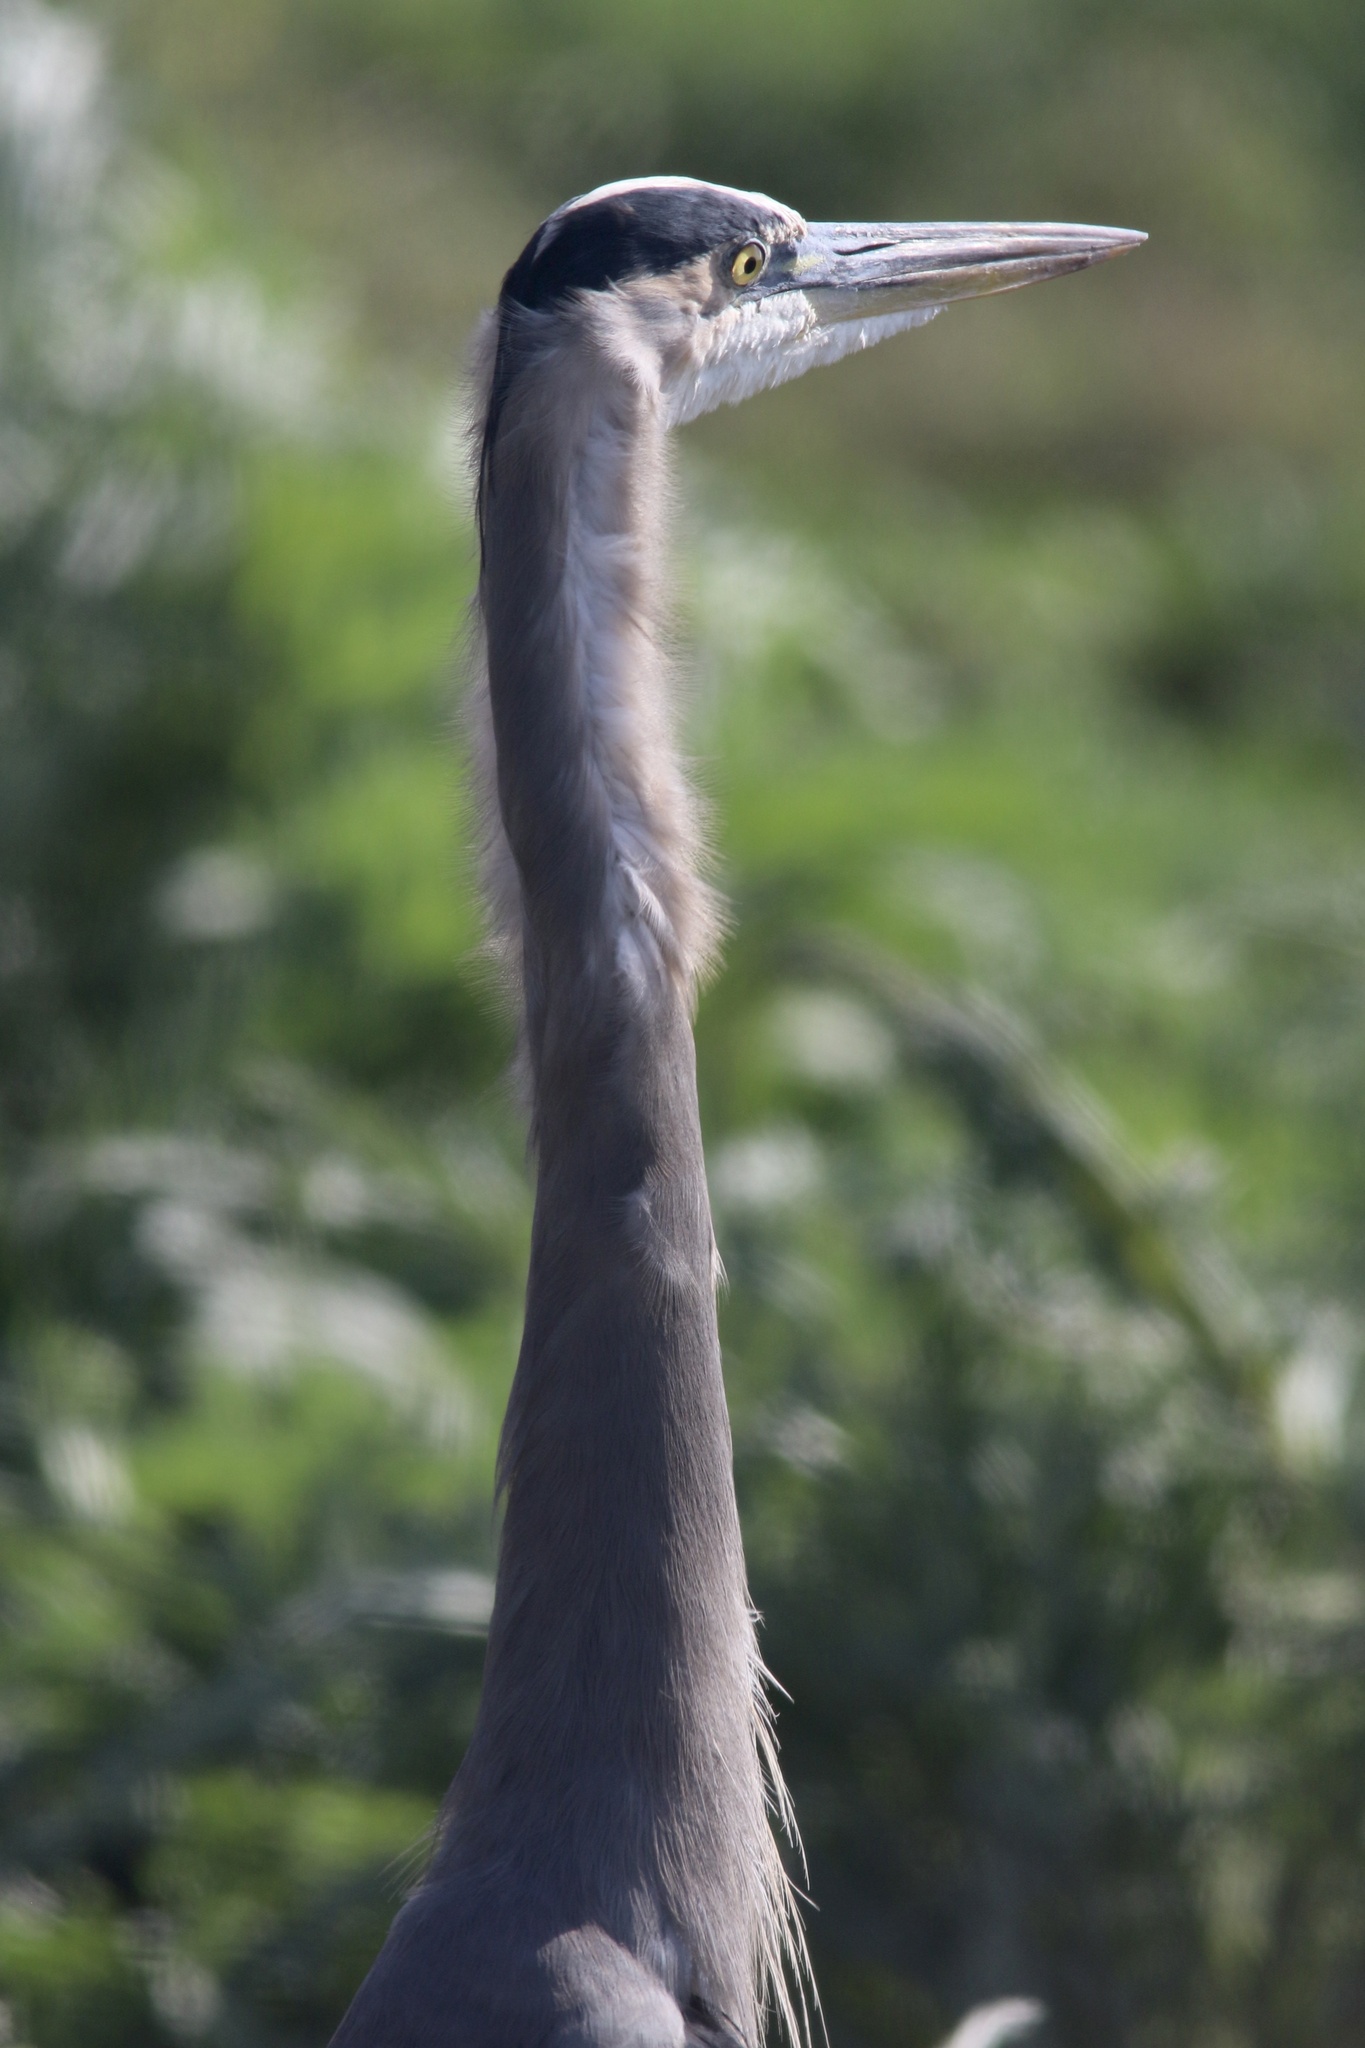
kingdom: Animalia
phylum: Chordata
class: Aves
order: Pelecaniformes
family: Ardeidae
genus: Ardea
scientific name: Ardea herodias
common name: Great blue heron
